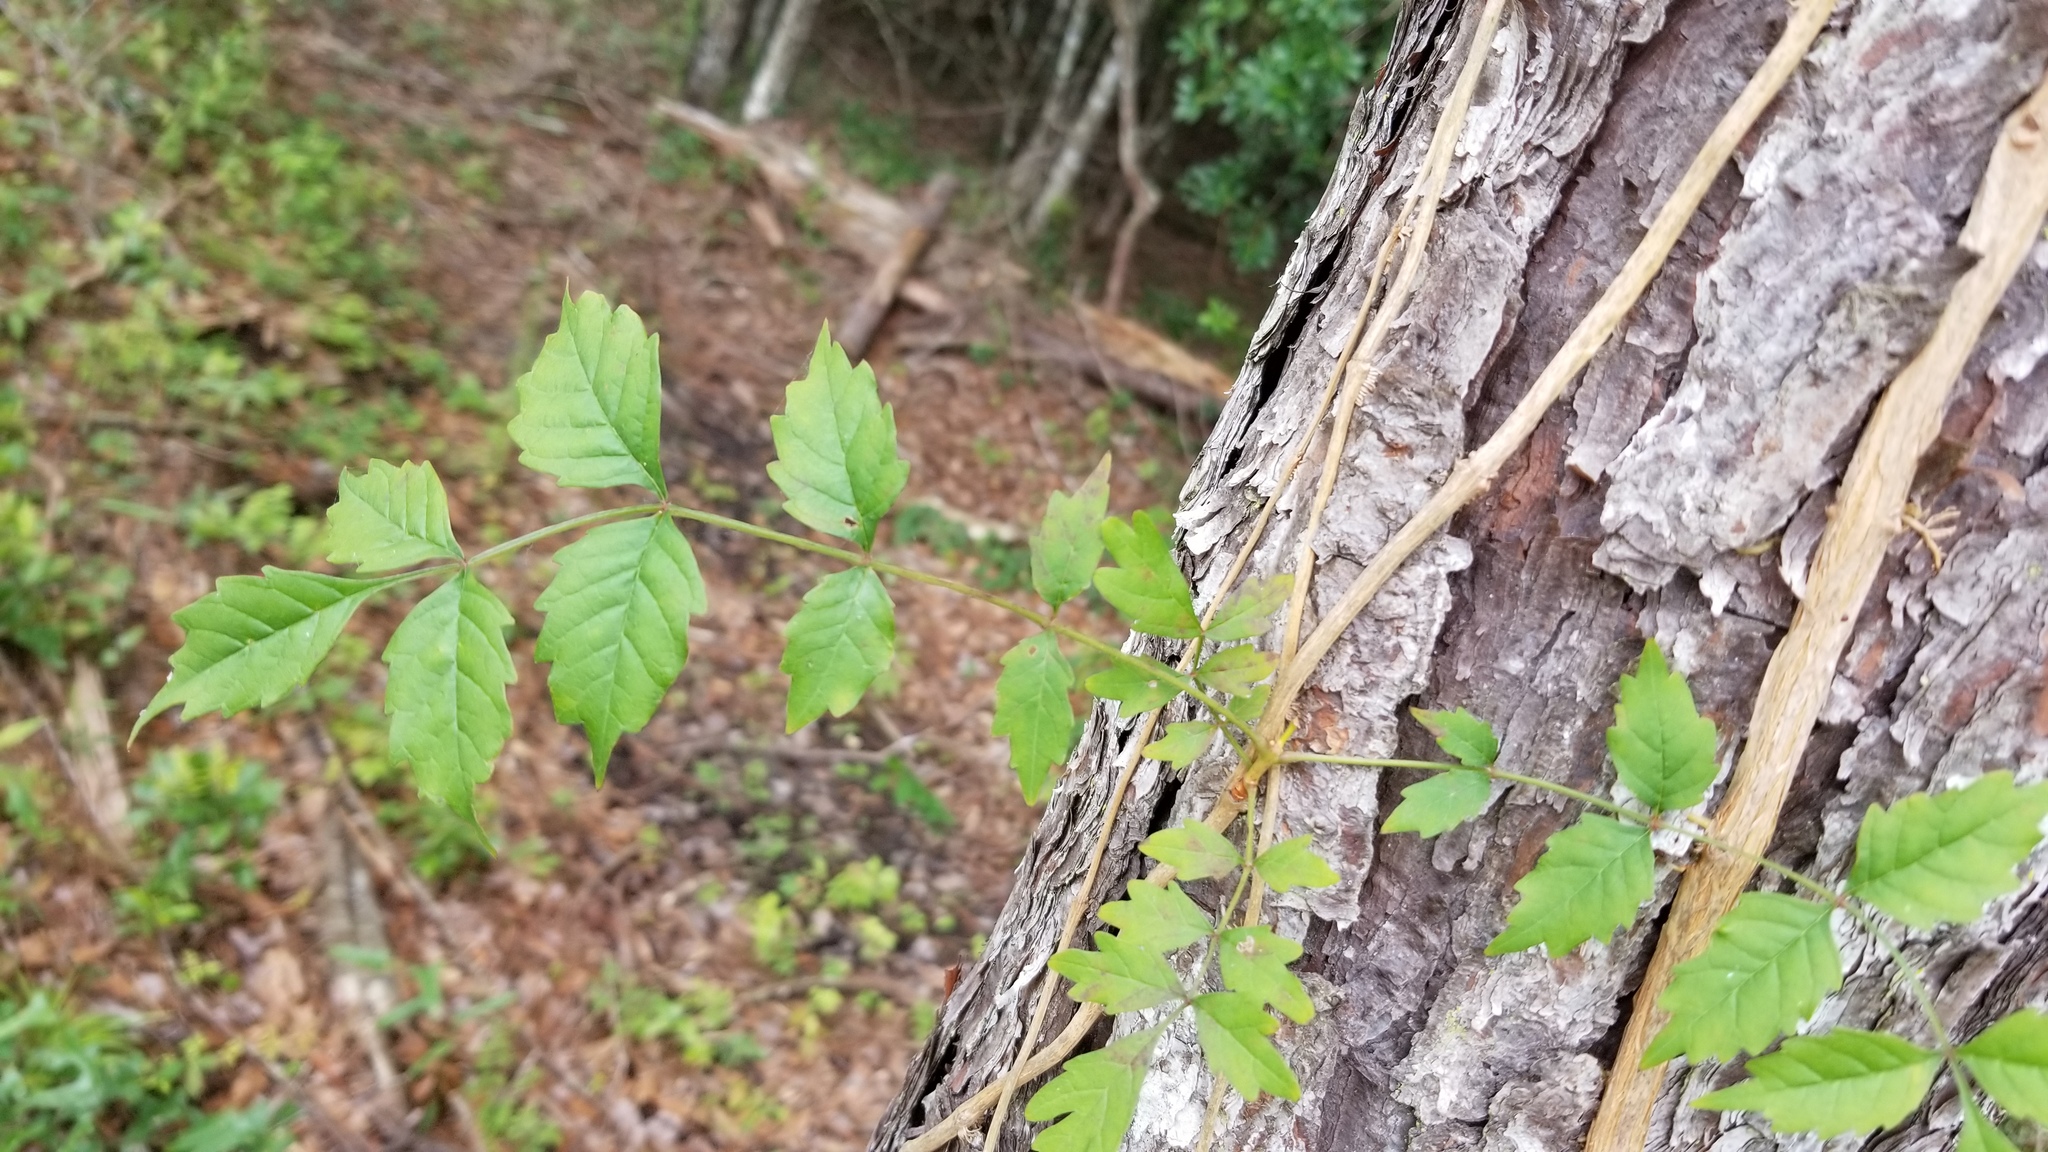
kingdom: Plantae
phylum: Tracheophyta
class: Magnoliopsida
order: Lamiales
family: Bignoniaceae
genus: Campsis
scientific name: Campsis radicans
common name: Trumpet-creeper
